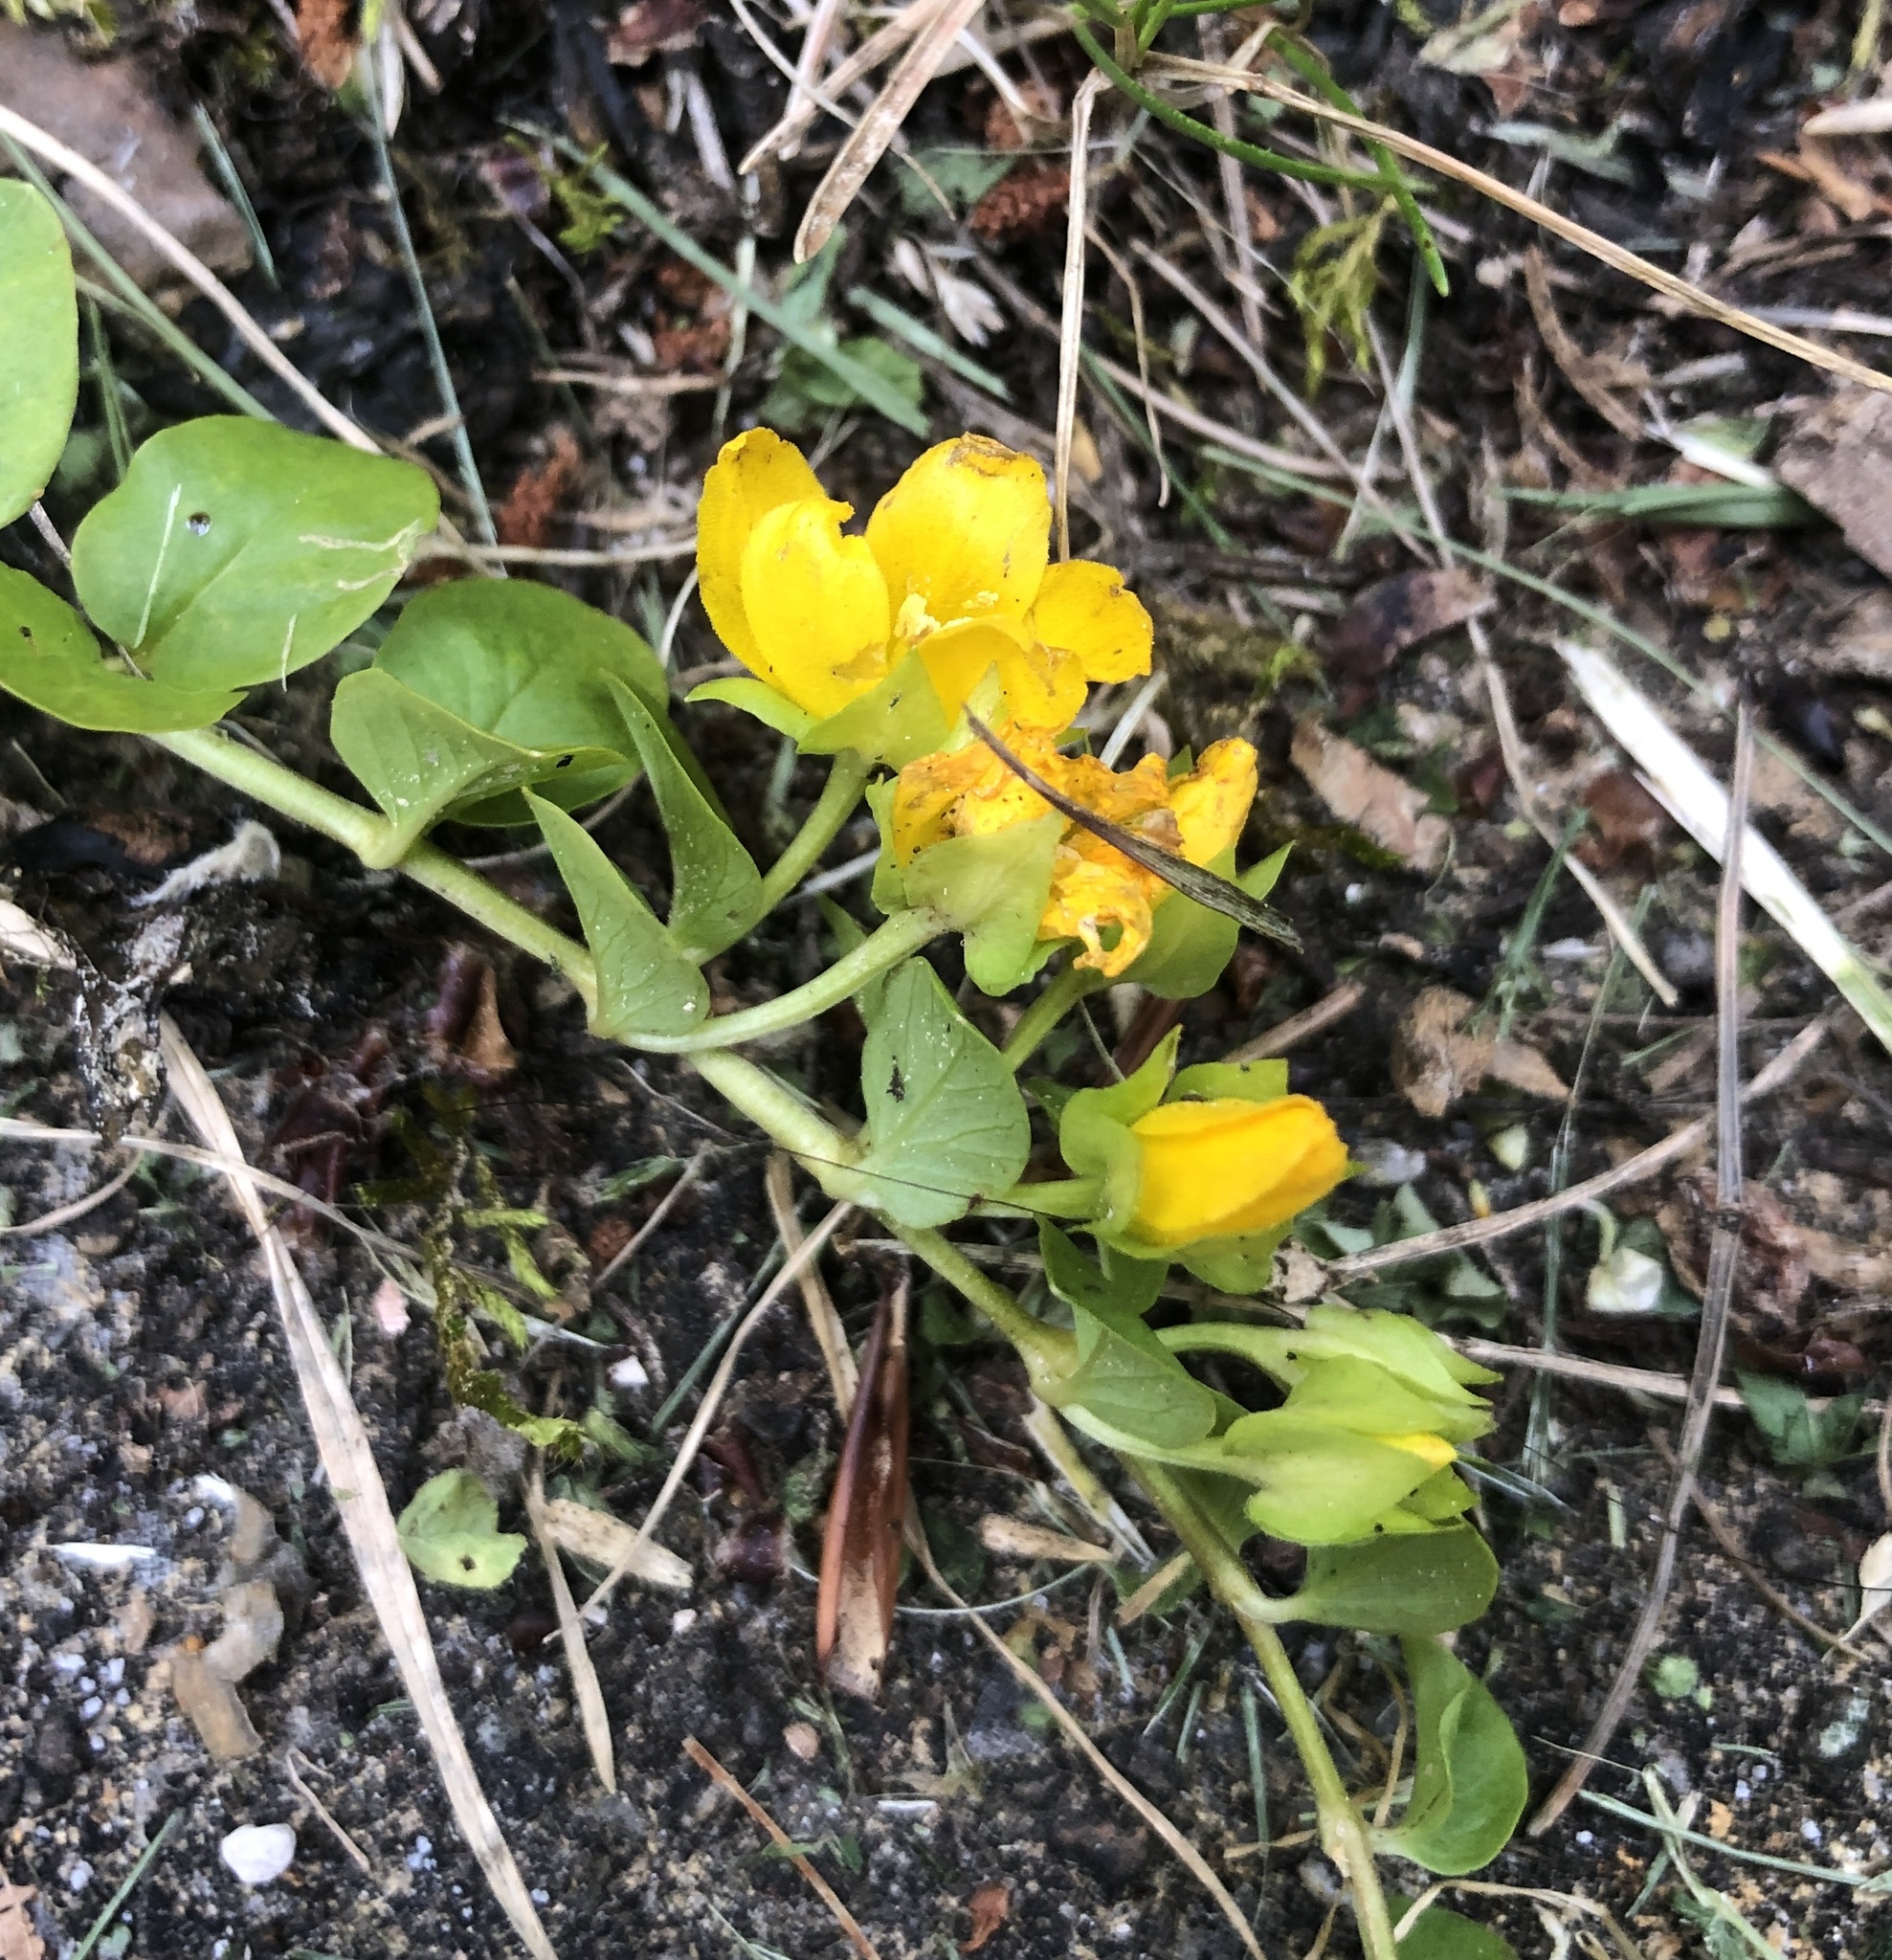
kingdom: Plantae
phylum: Tracheophyta
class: Magnoliopsida
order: Ericales
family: Primulaceae
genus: Lysimachia
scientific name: Lysimachia nummularia
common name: Moneywort
